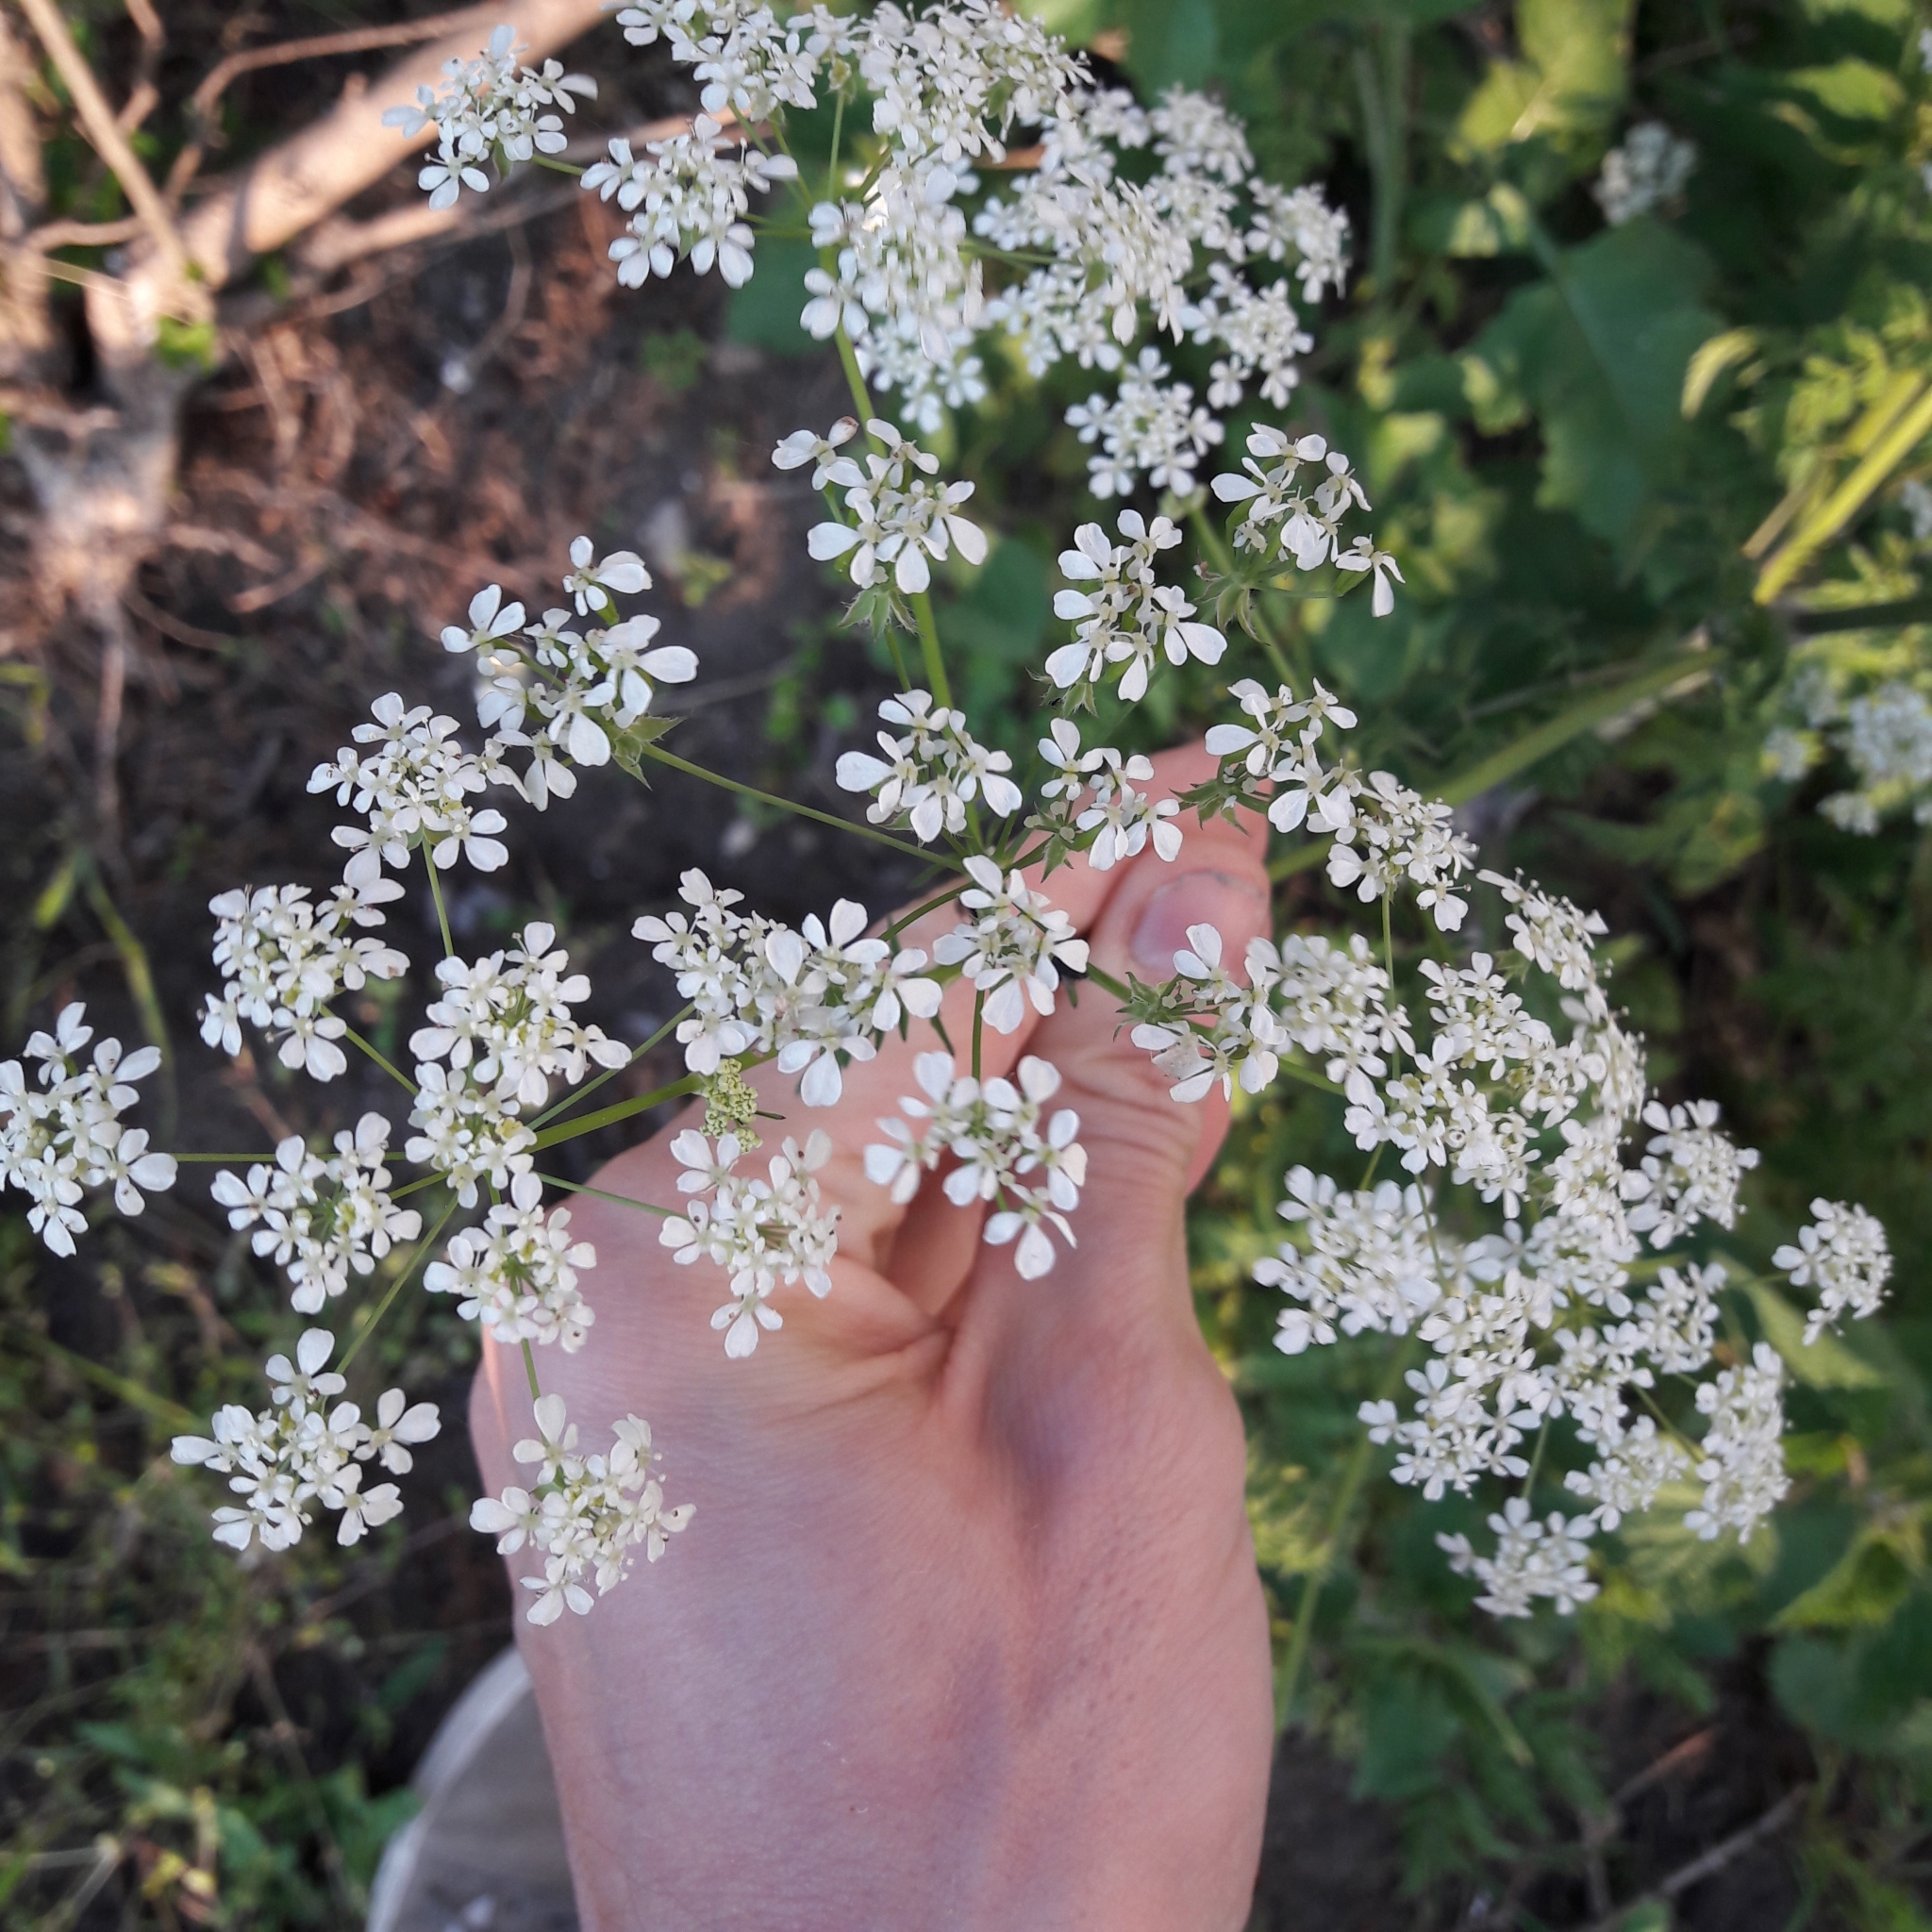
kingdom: Plantae
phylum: Tracheophyta
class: Magnoliopsida
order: Apiales
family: Apiaceae
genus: Anthriscus
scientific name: Anthriscus sylvestris
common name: Cow parsley
